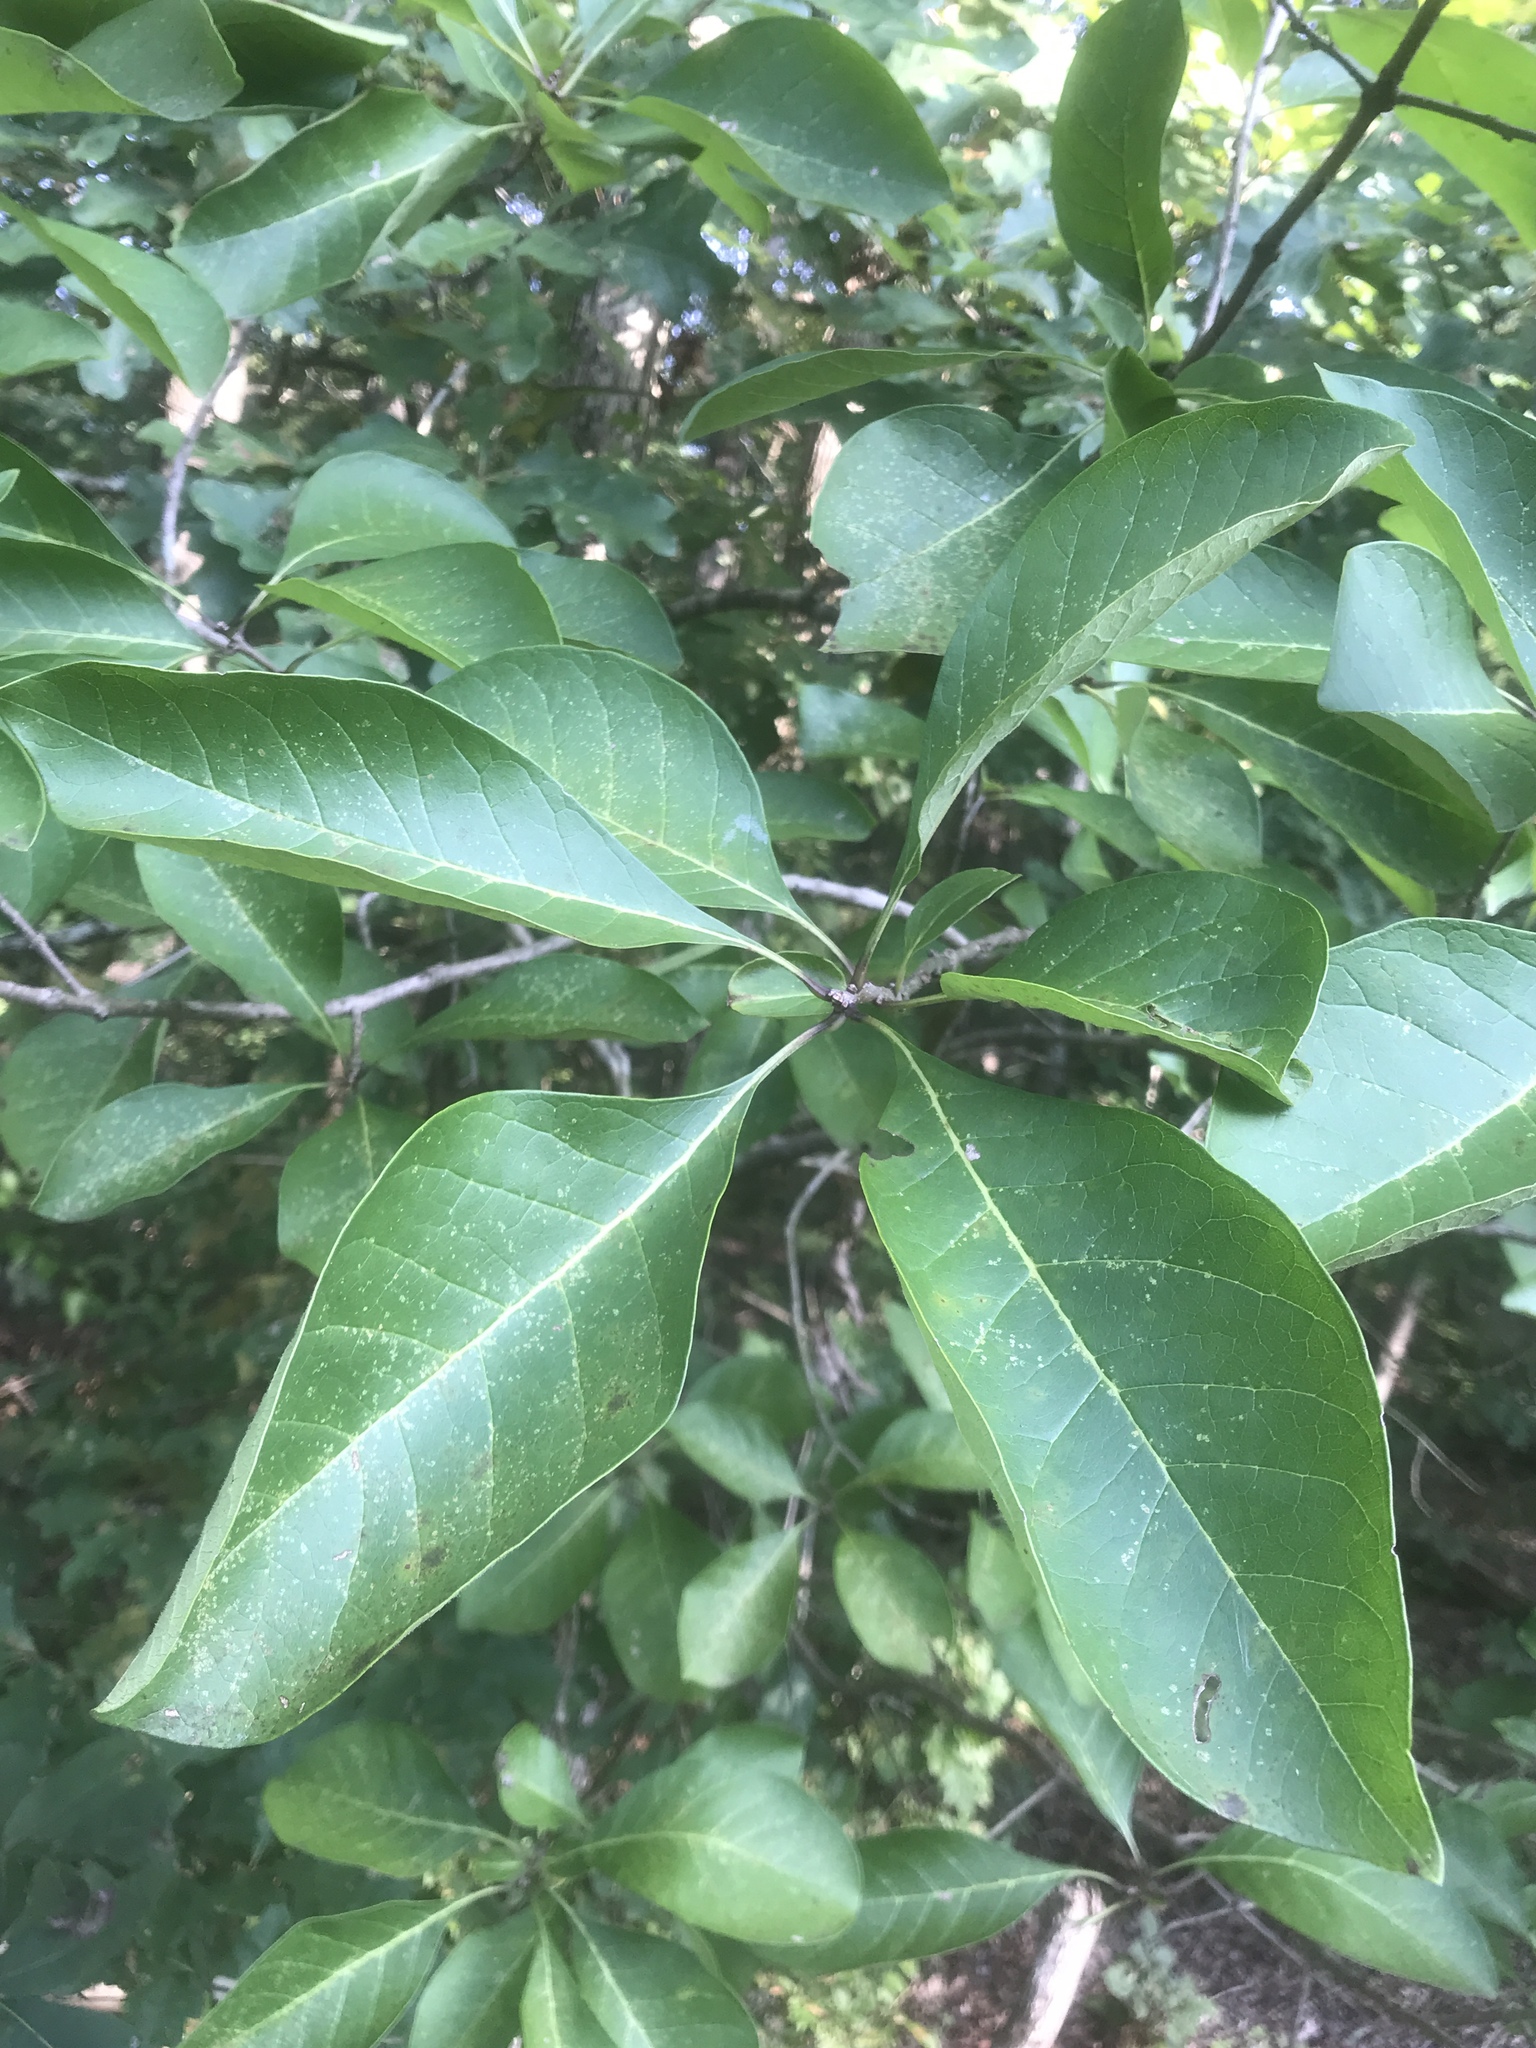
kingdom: Plantae
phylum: Tracheophyta
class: Magnoliopsida
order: Lamiales
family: Oleaceae
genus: Chionanthus
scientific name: Chionanthus virginicus
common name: American fringetree
